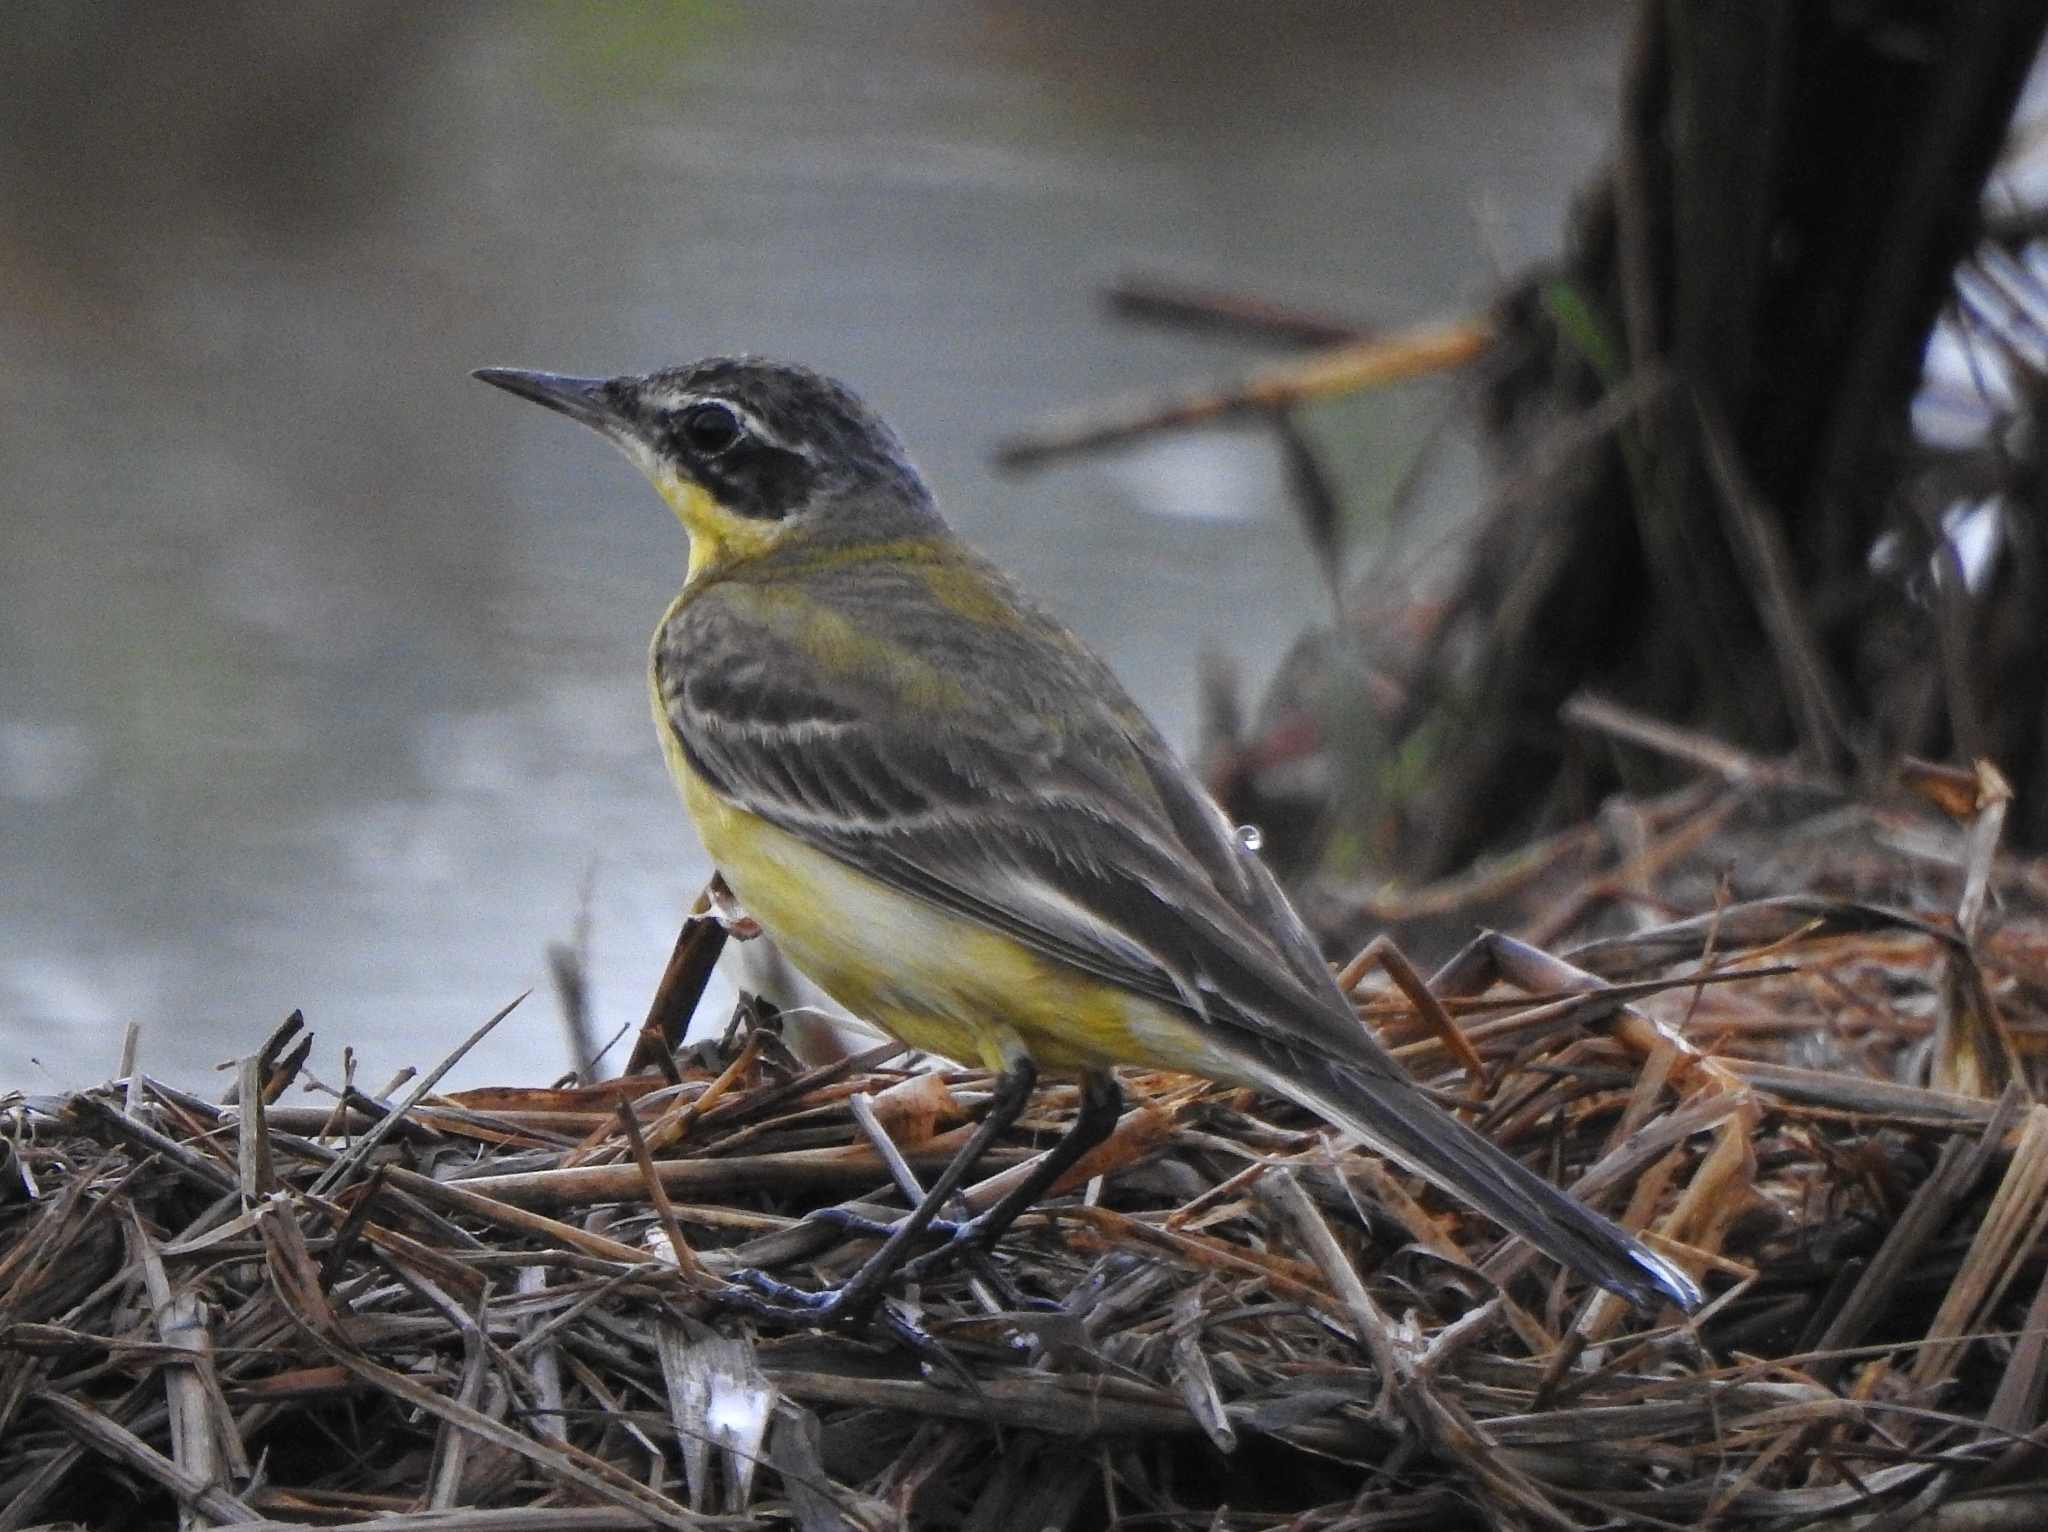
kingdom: Animalia
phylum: Chordata
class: Aves
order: Passeriformes
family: Motacillidae
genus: Motacilla
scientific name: Motacilla tschutschensis
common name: Eastern yellow wagtail
